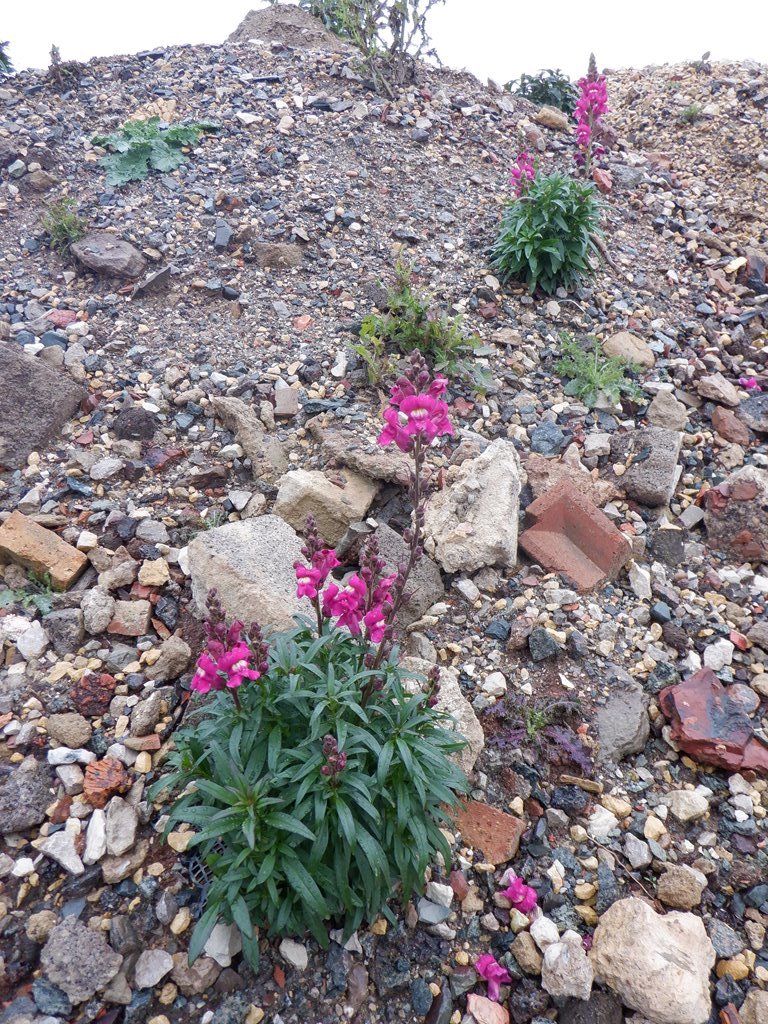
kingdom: Plantae
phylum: Tracheophyta
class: Magnoliopsida
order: Lamiales
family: Plantaginaceae
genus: Antirrhinum
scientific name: Antirrhinum majus
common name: Snapdragon
